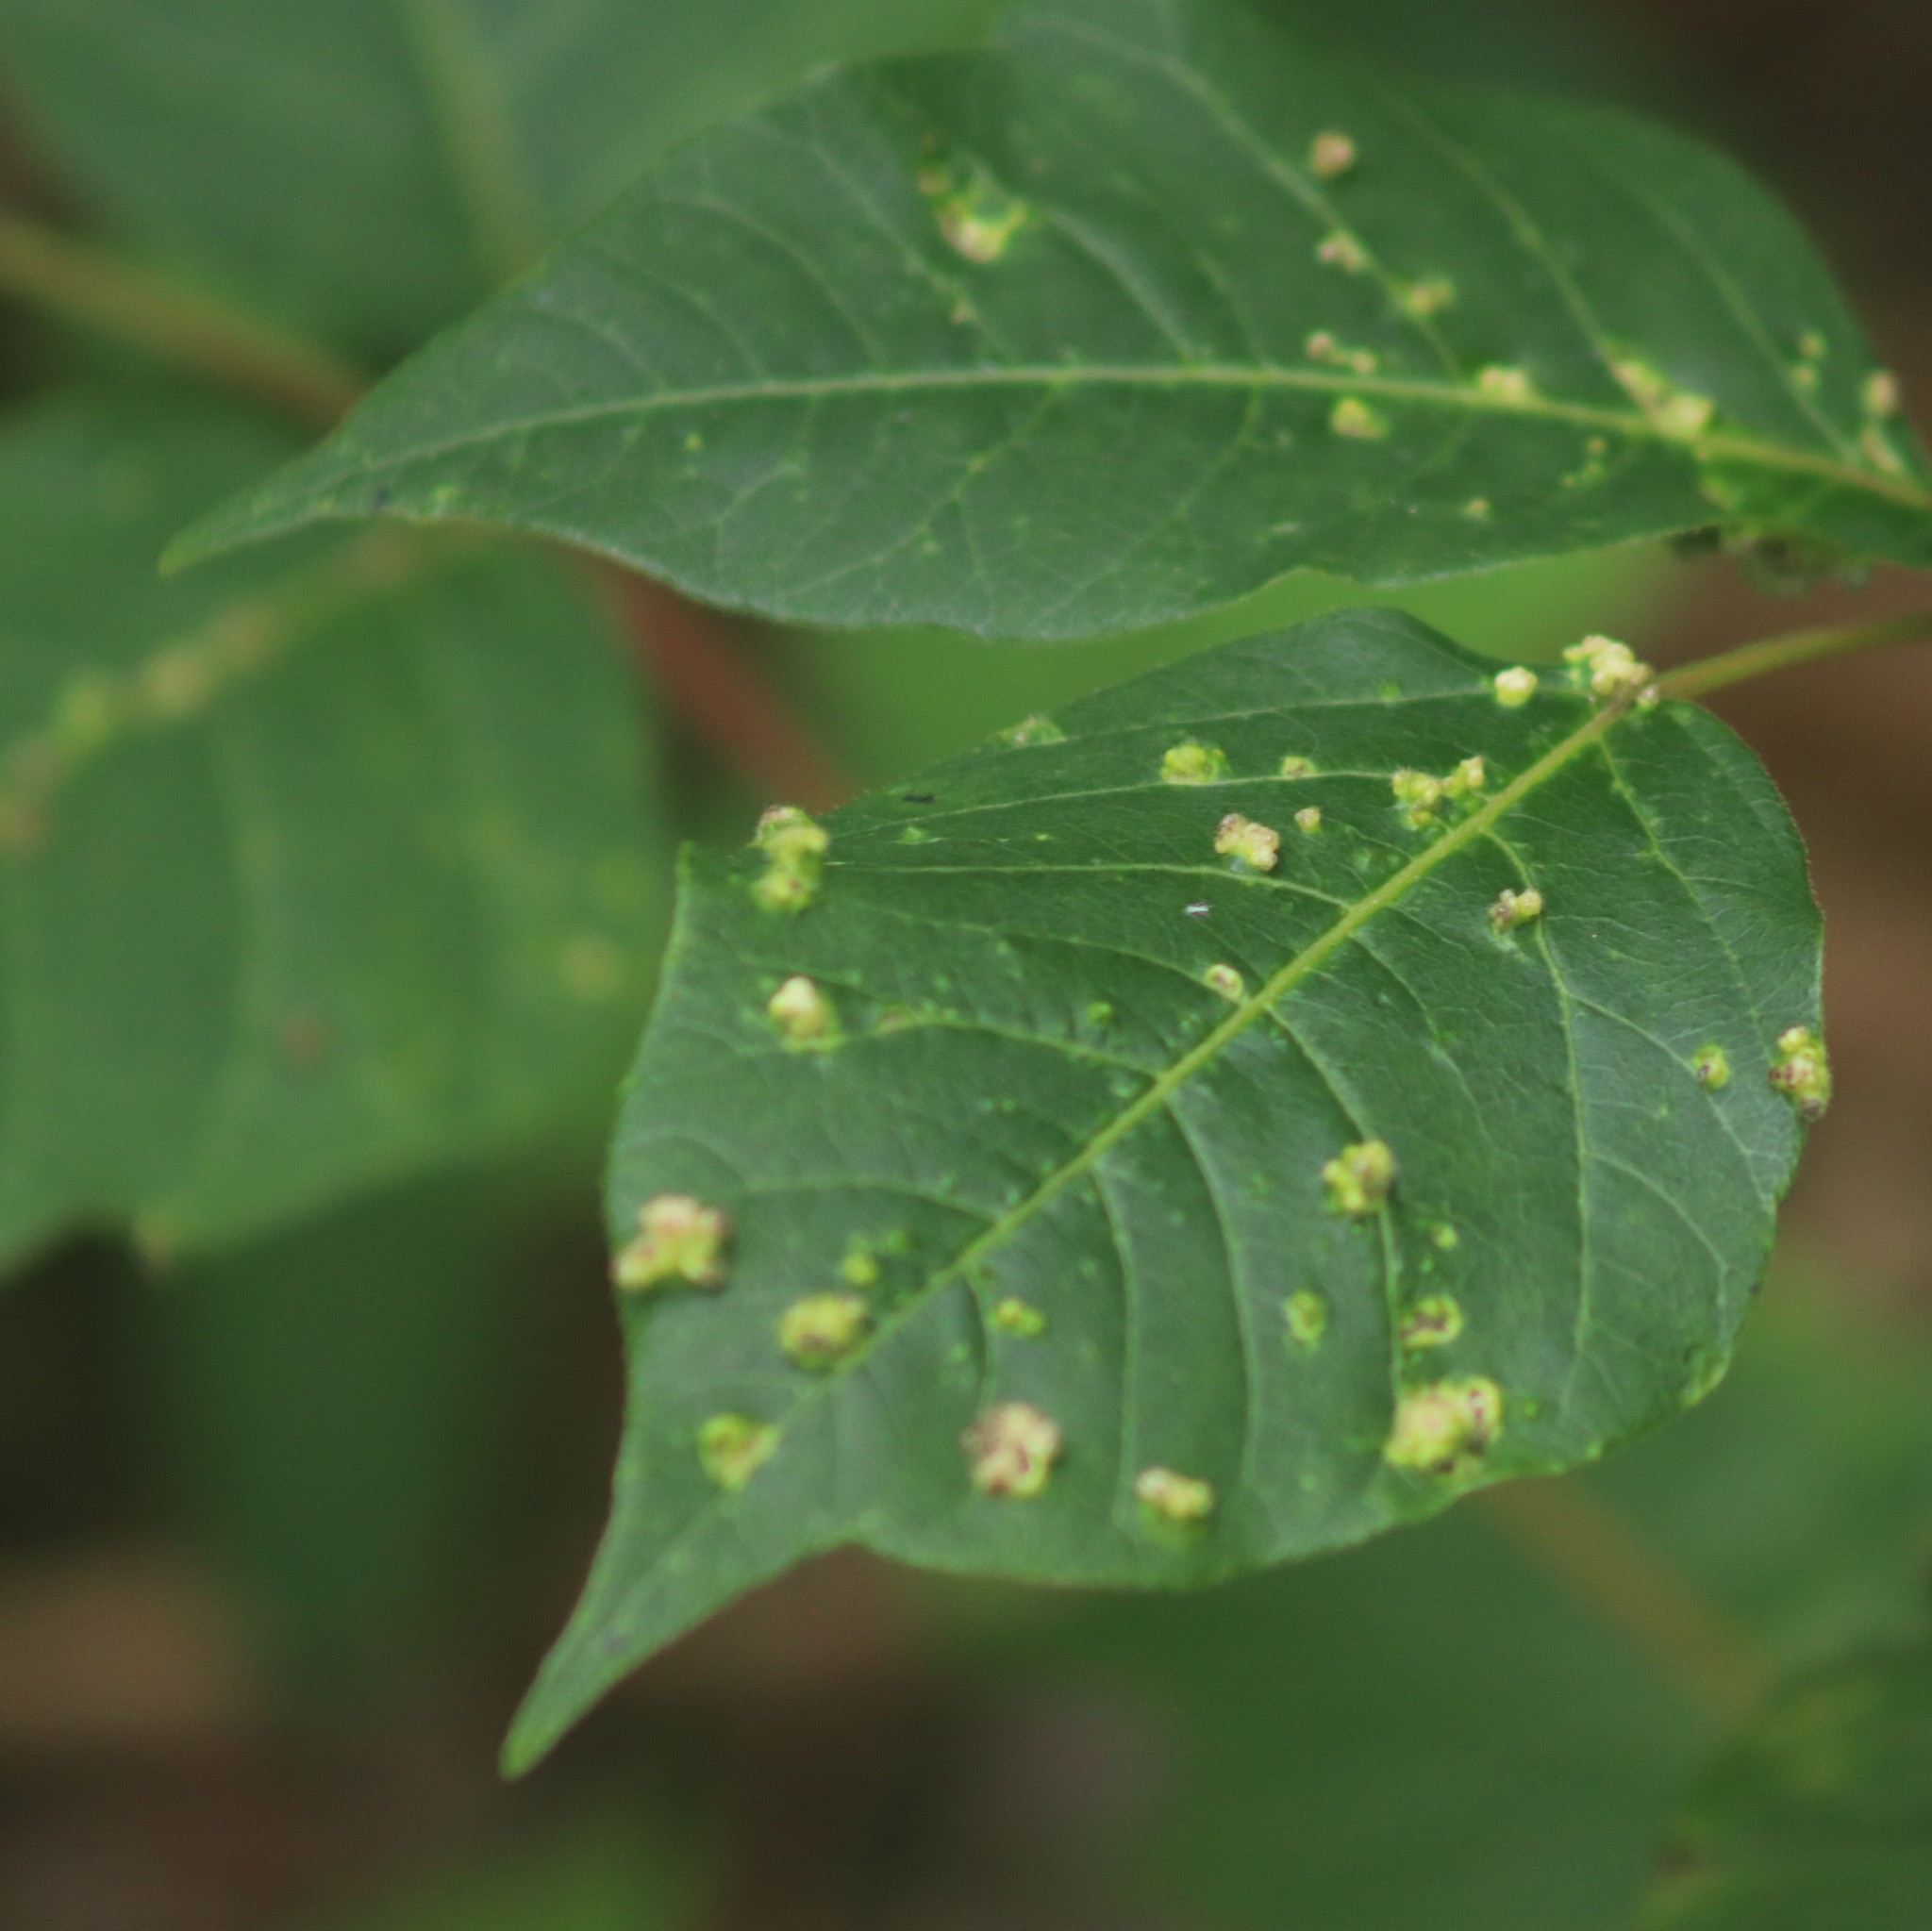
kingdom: Animalia
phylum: Arthropoda
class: Arachnida
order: Trombidiformes
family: Eriophyidae
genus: Aculops
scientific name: Aculops
